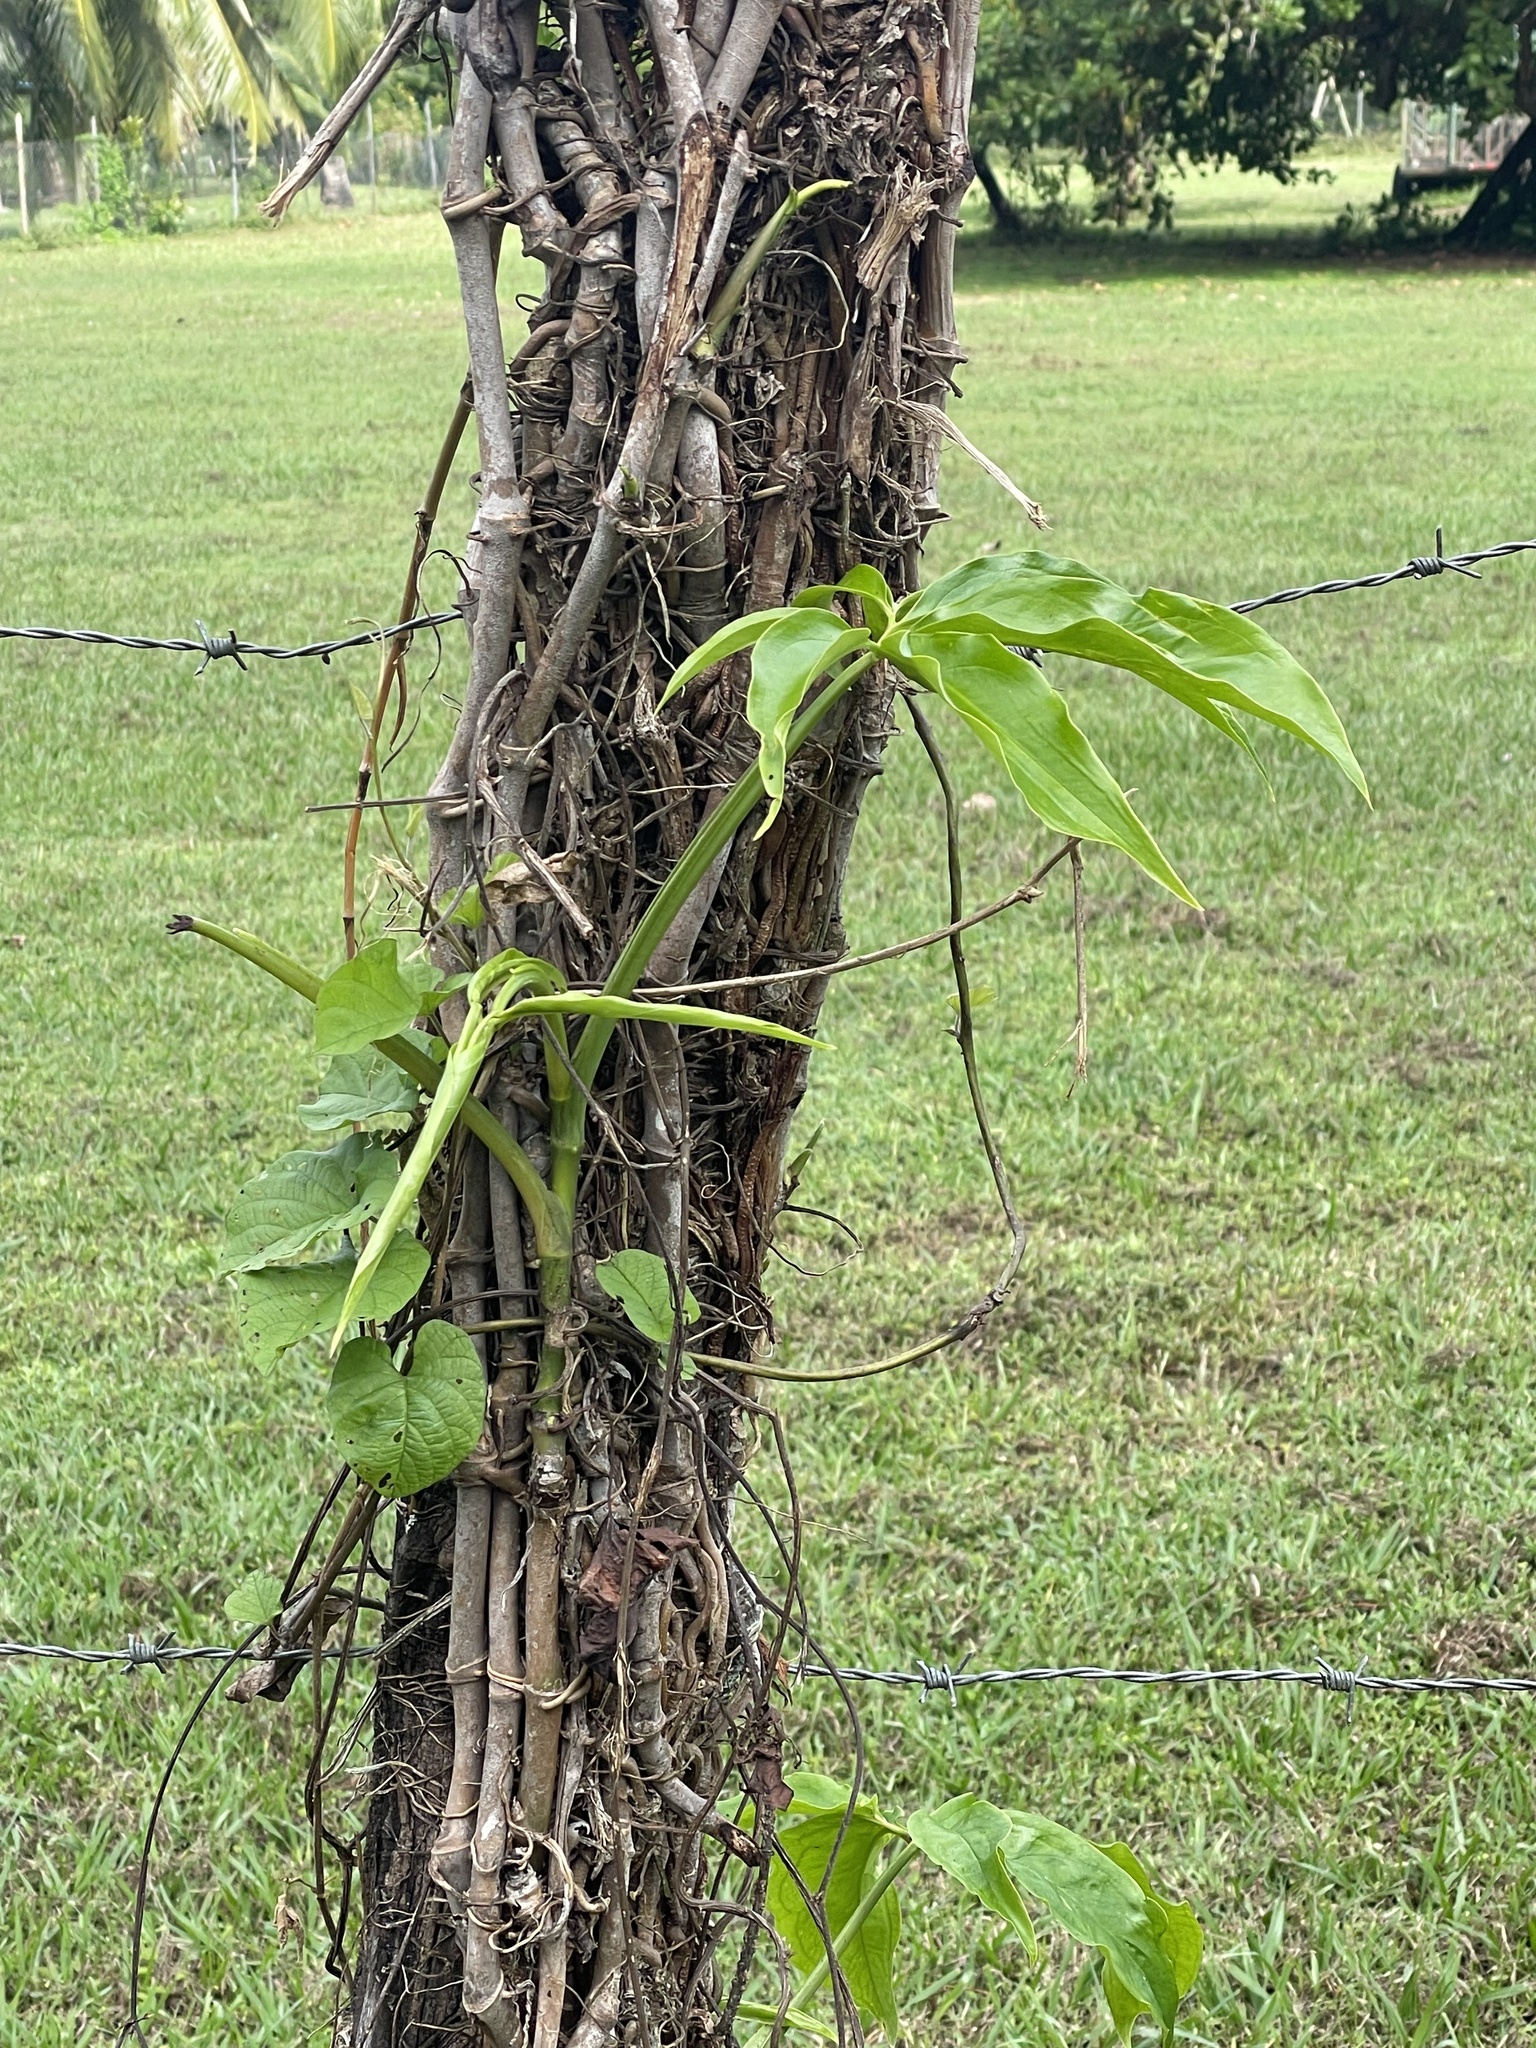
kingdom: Plantae
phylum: Tracheophyta
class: Liliopsida
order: Alismatales
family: Araceae
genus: Syngonium
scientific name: Syngonium angustatum
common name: Fivefingers
